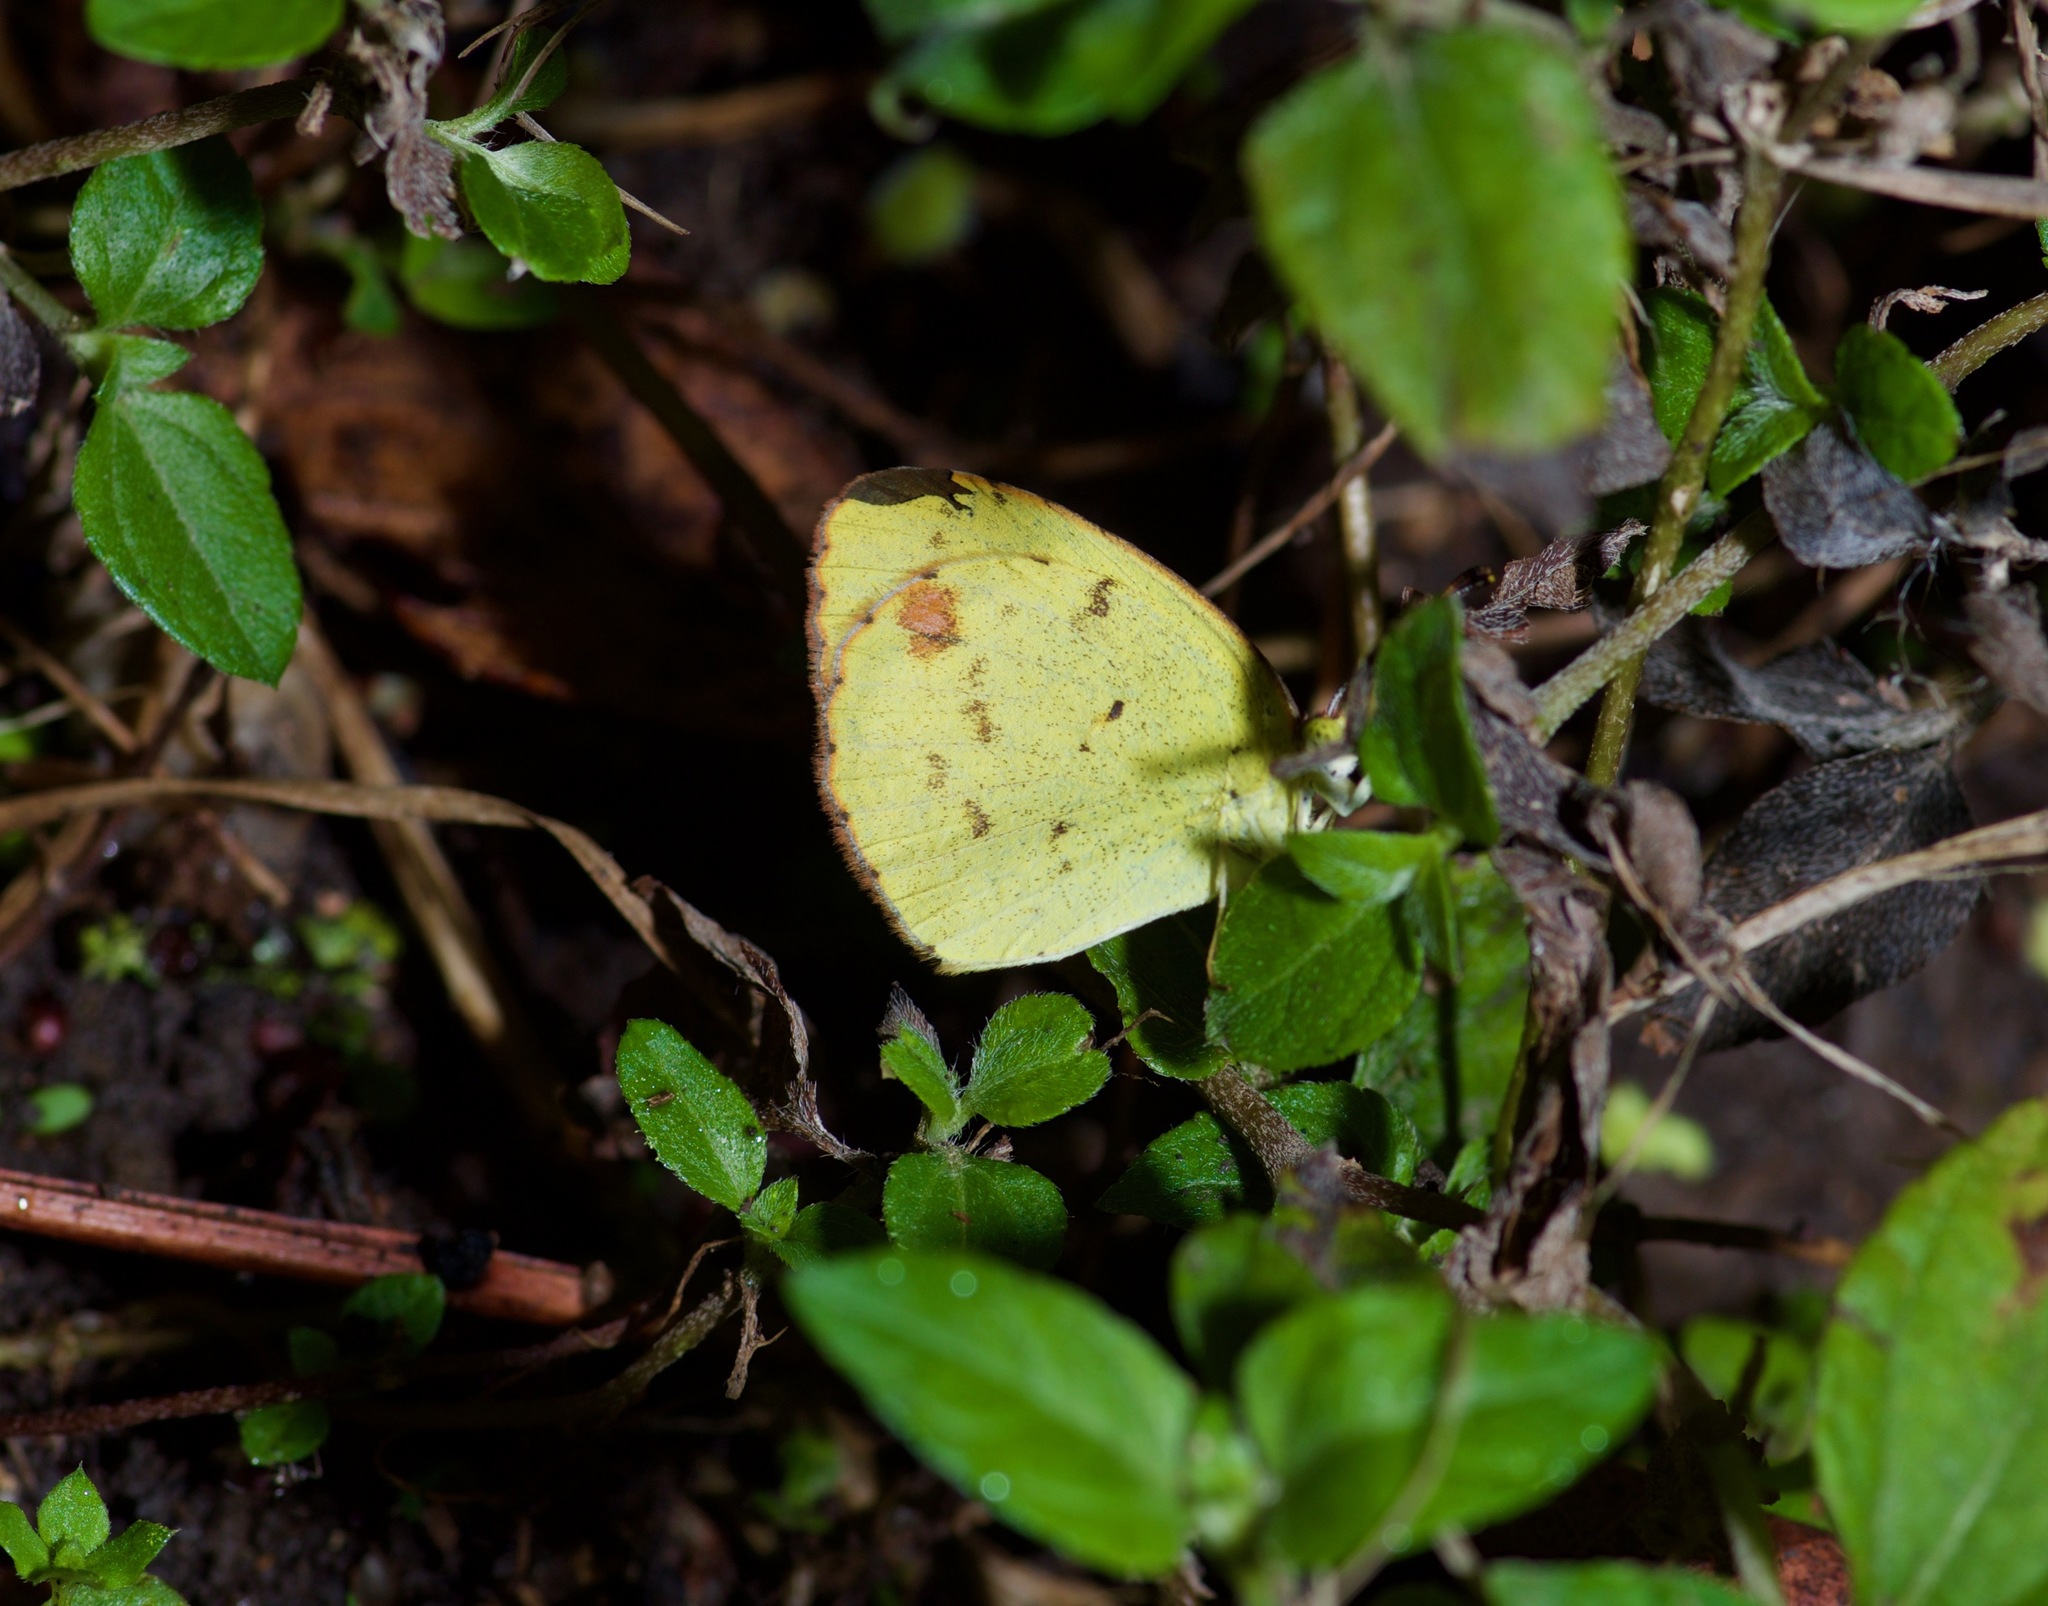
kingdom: Animalia
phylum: Arthropoda
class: Insecta
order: Lepidoptera
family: Pieridae
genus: Pyrisitia
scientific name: Pyrisitia lisa
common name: Little yellow
